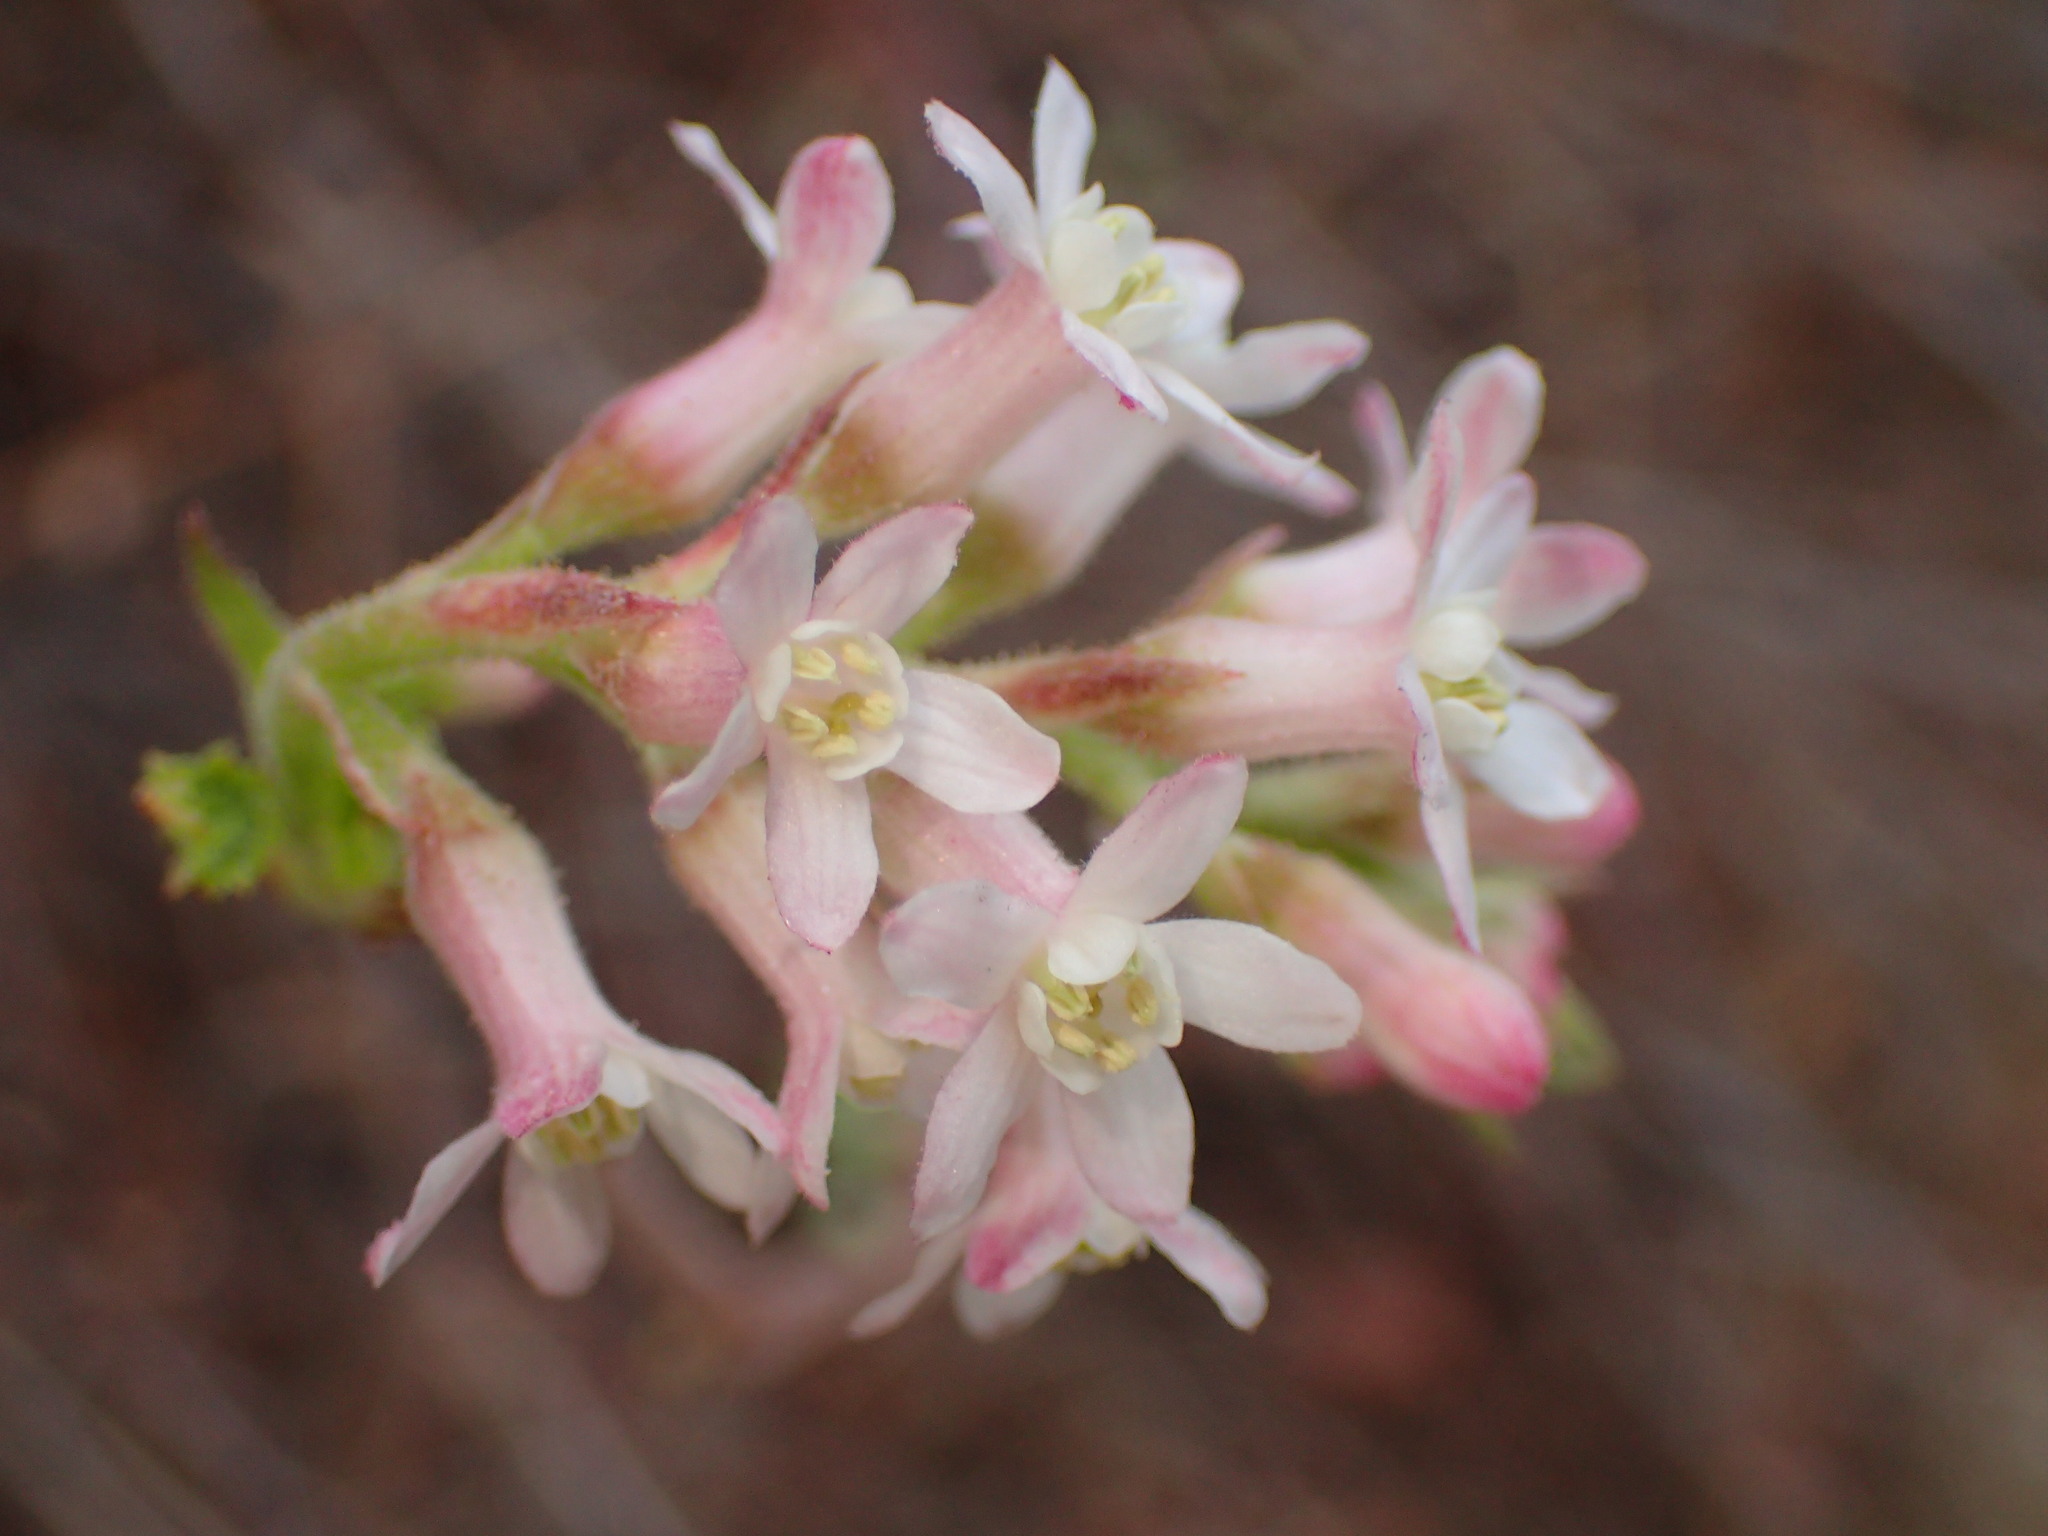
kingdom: Plantae
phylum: Tracheophyta
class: Magnoliopsida
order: Saxifragales
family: Grossulariaceae
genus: Ribes
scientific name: Ribes malvaceum
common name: Chaparral currant
